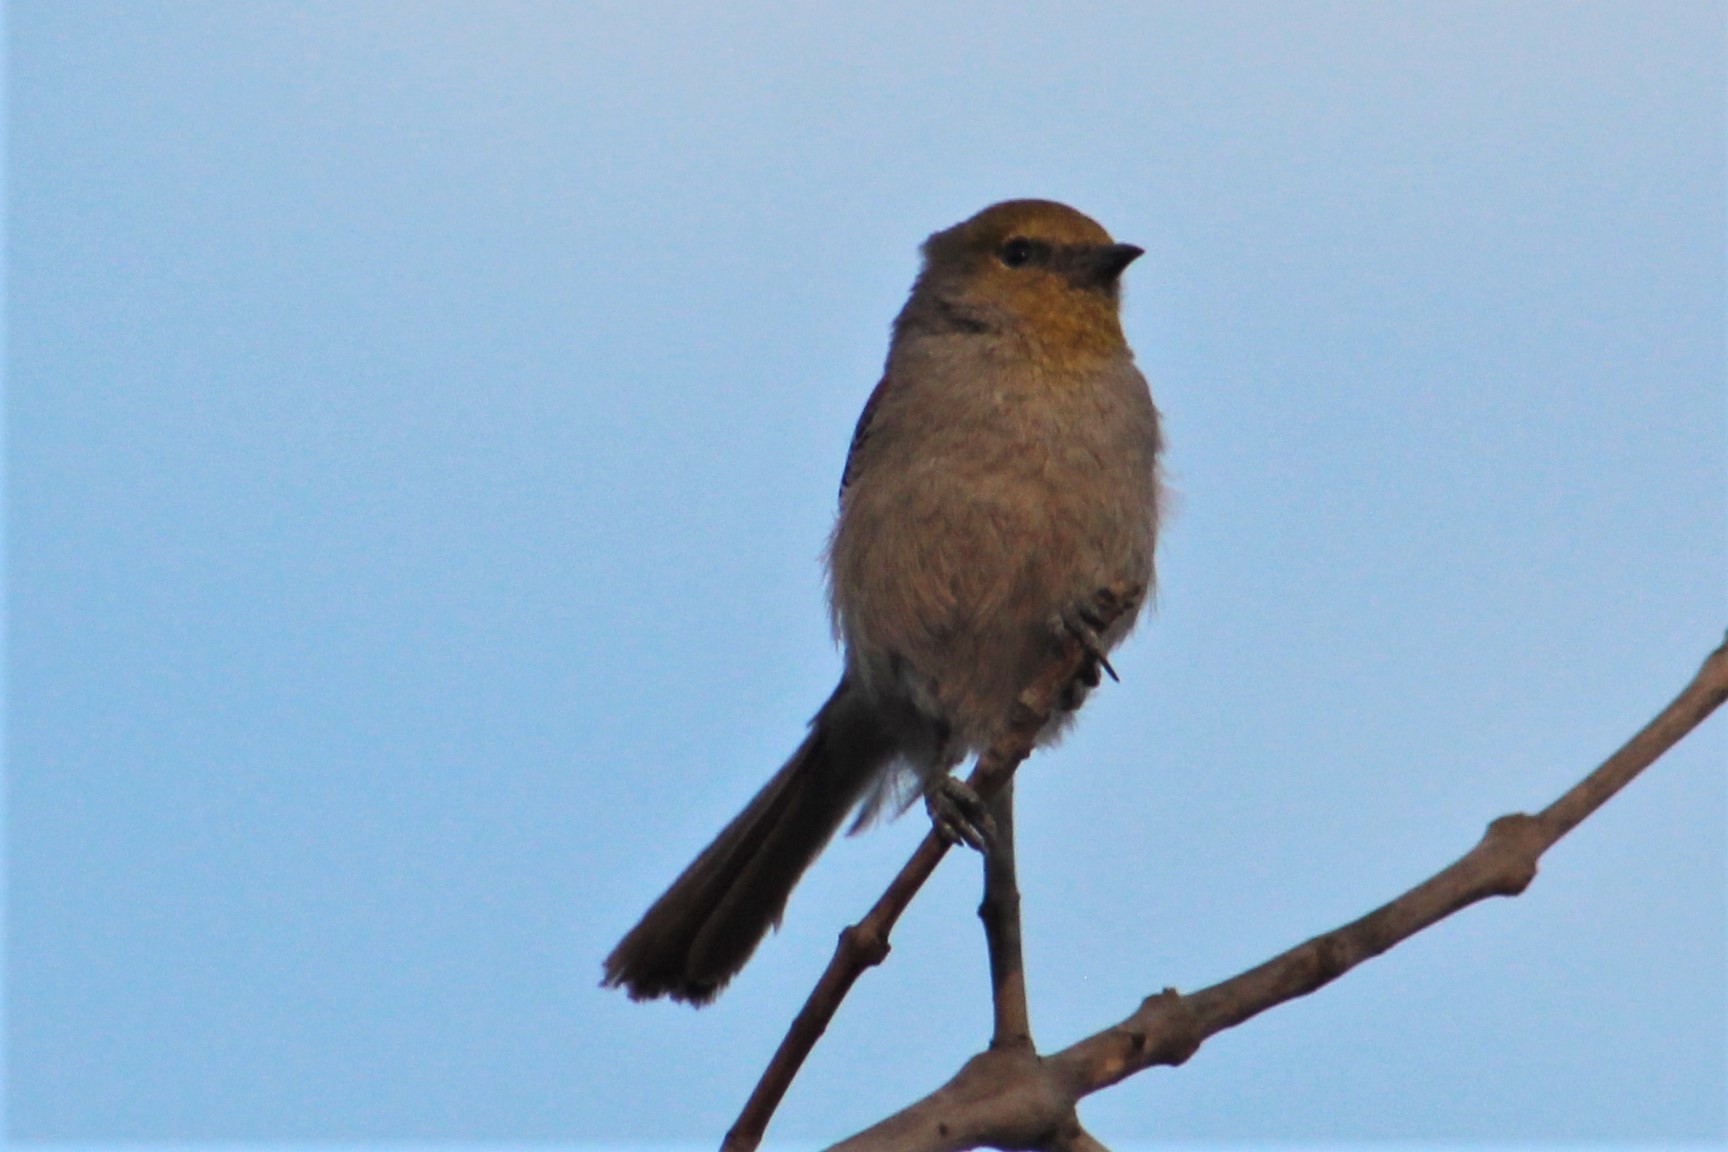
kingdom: Animalia
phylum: Chordata
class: Aves
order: Passeriformes
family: Remizidae
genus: Auriparus
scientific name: Auriparus flaviceps
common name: Verdin
